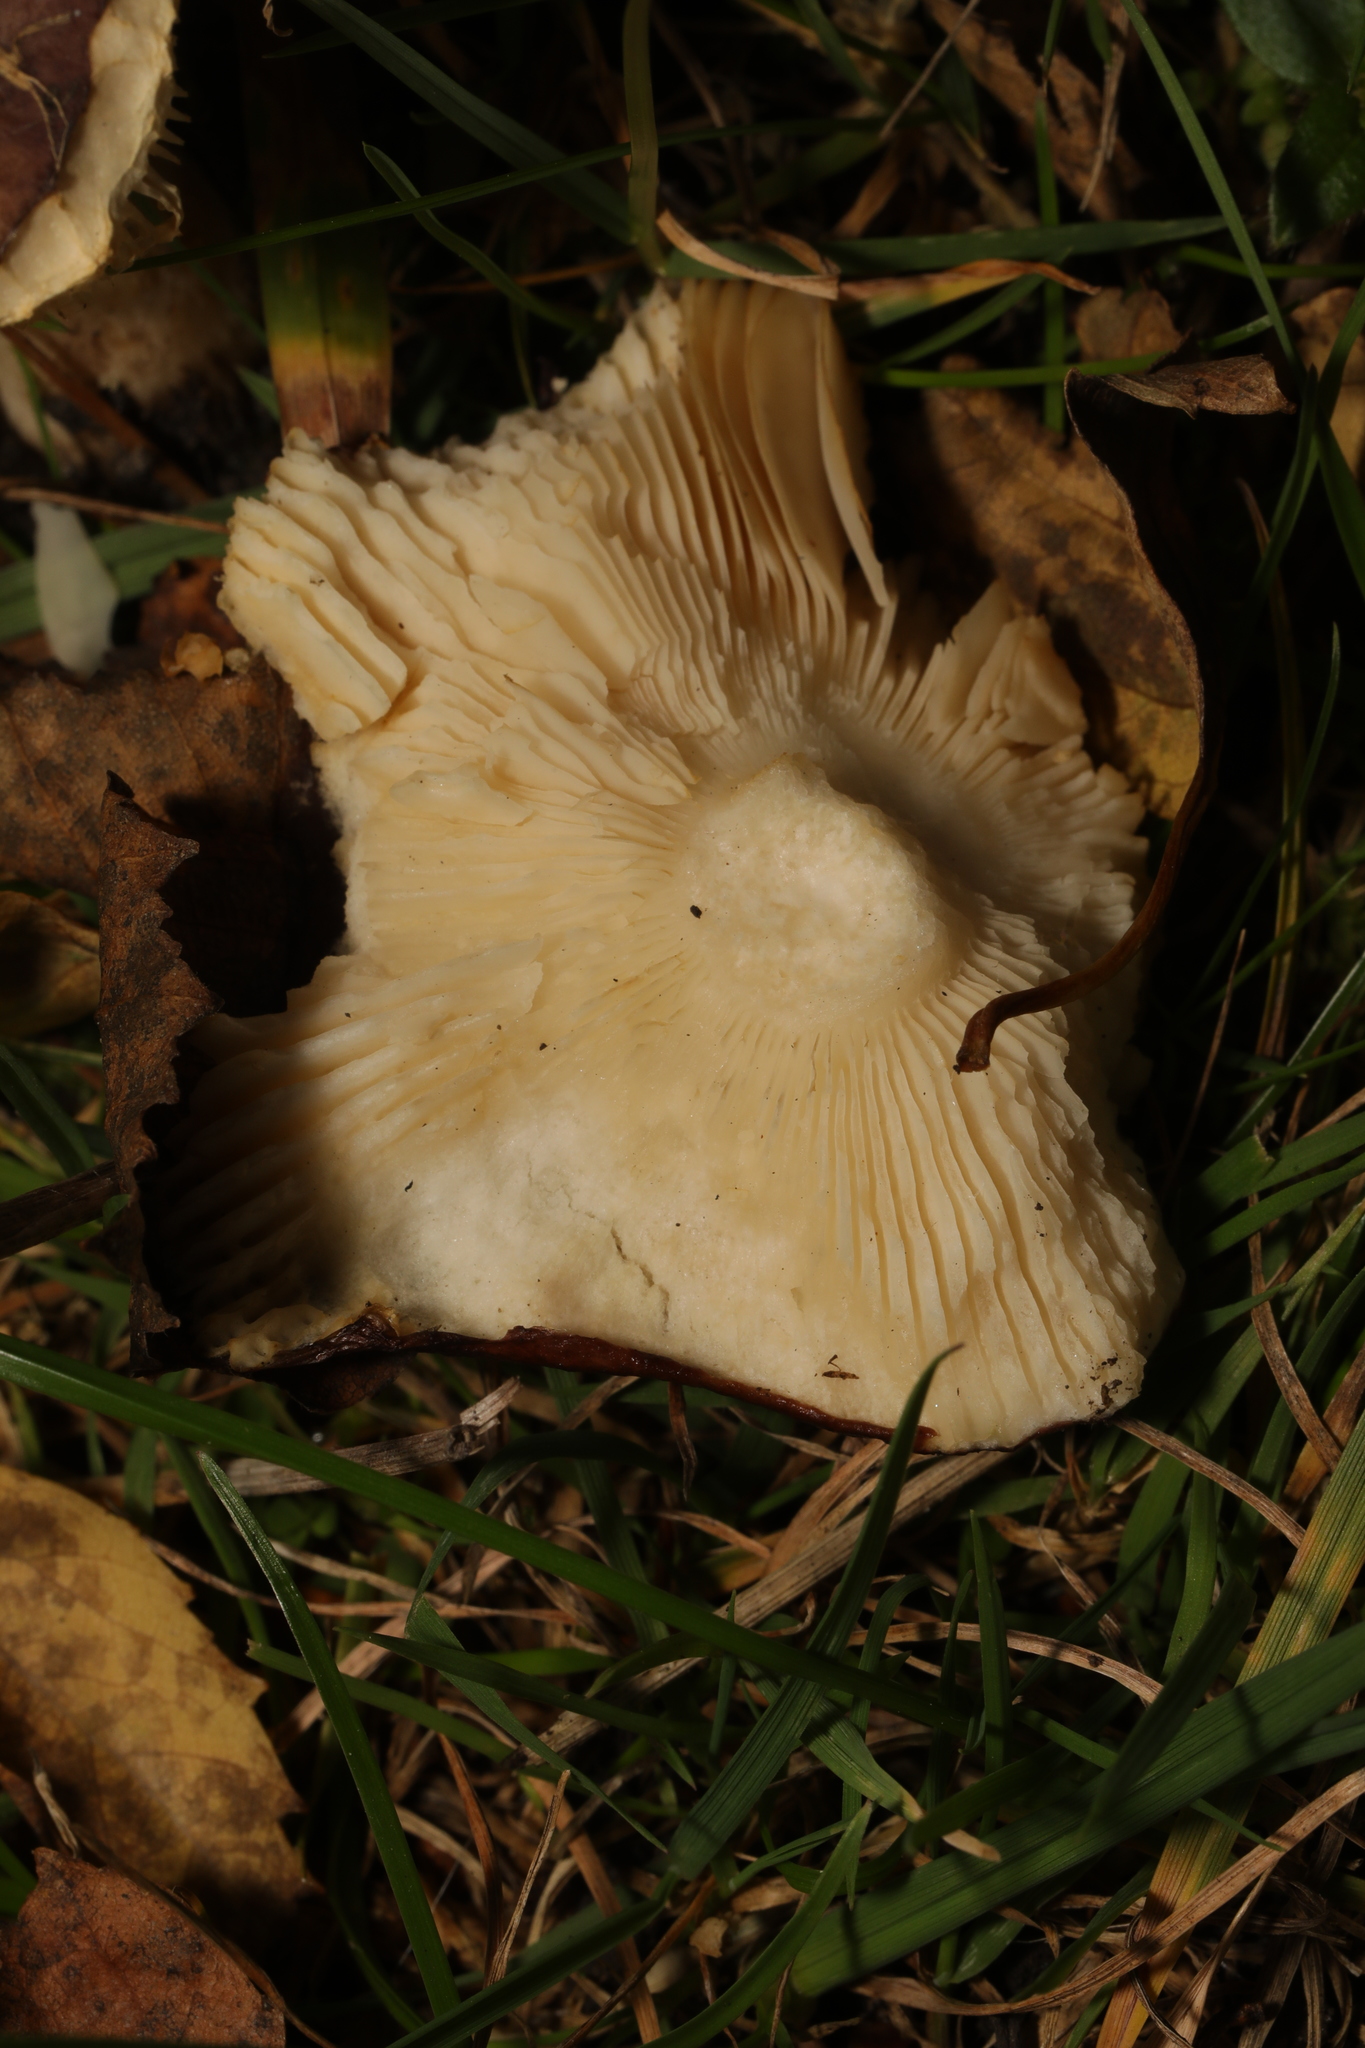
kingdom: Fungi
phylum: Basidiomycota
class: Agaricomycetes
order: Russulales
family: Russulaceae
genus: Russula
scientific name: Russula
